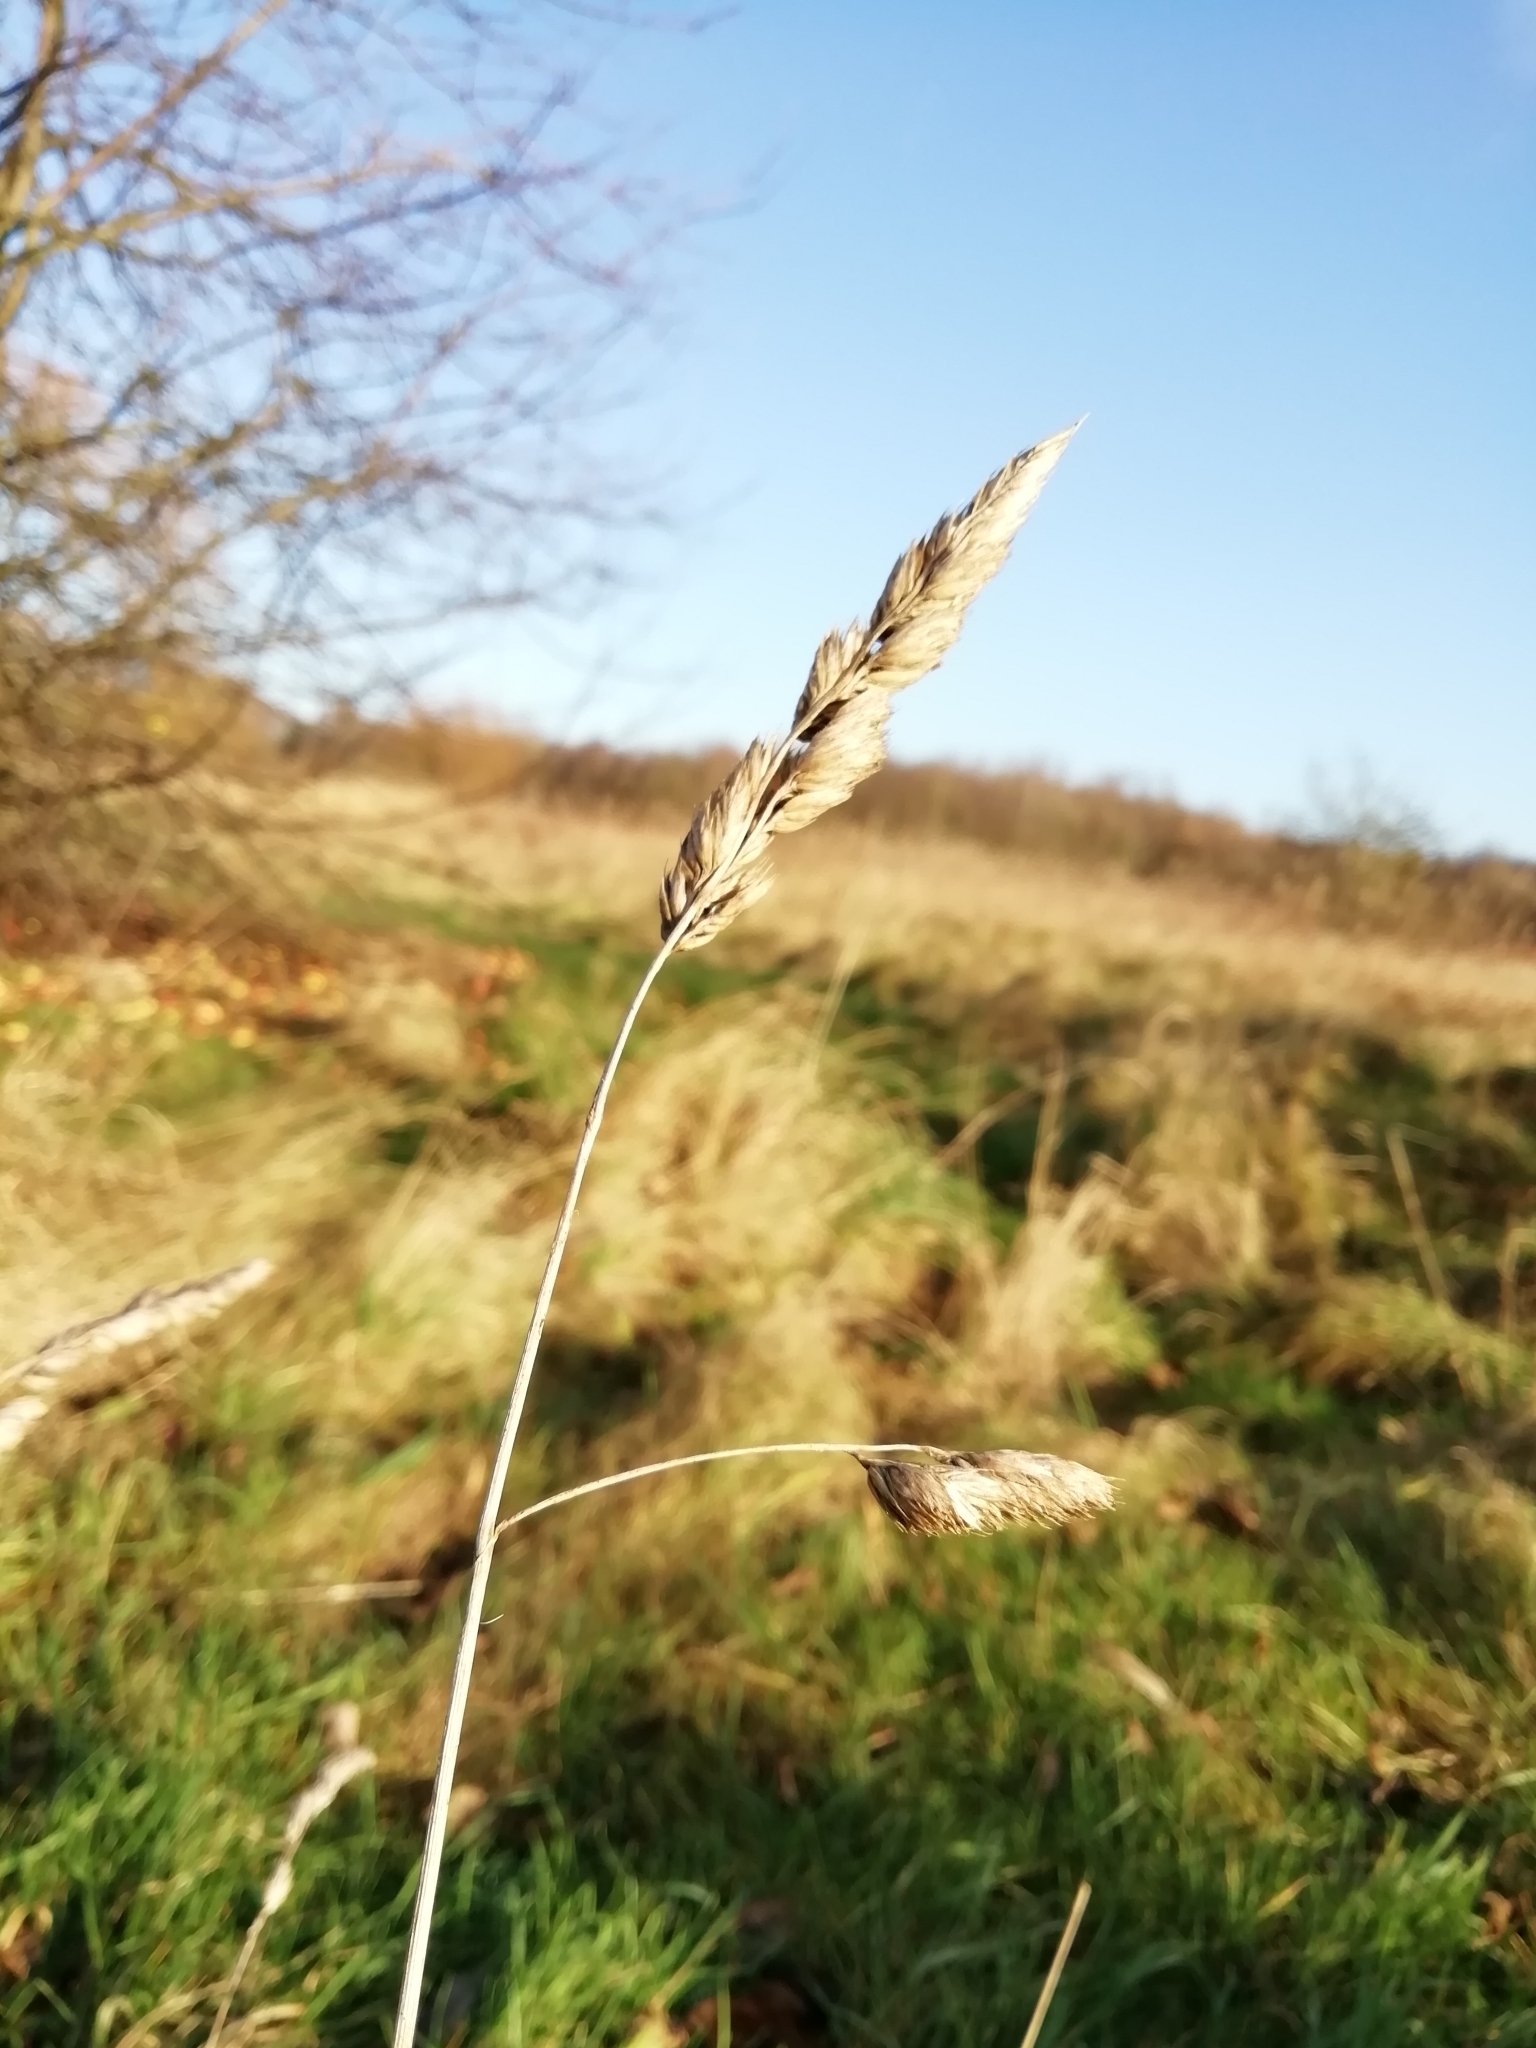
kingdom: Plantae
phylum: Tracheophyta
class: Liliopsida
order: Poales
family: Poaceae
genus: Dactylis
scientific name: Dactylis glomerata
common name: Orchardgrass
